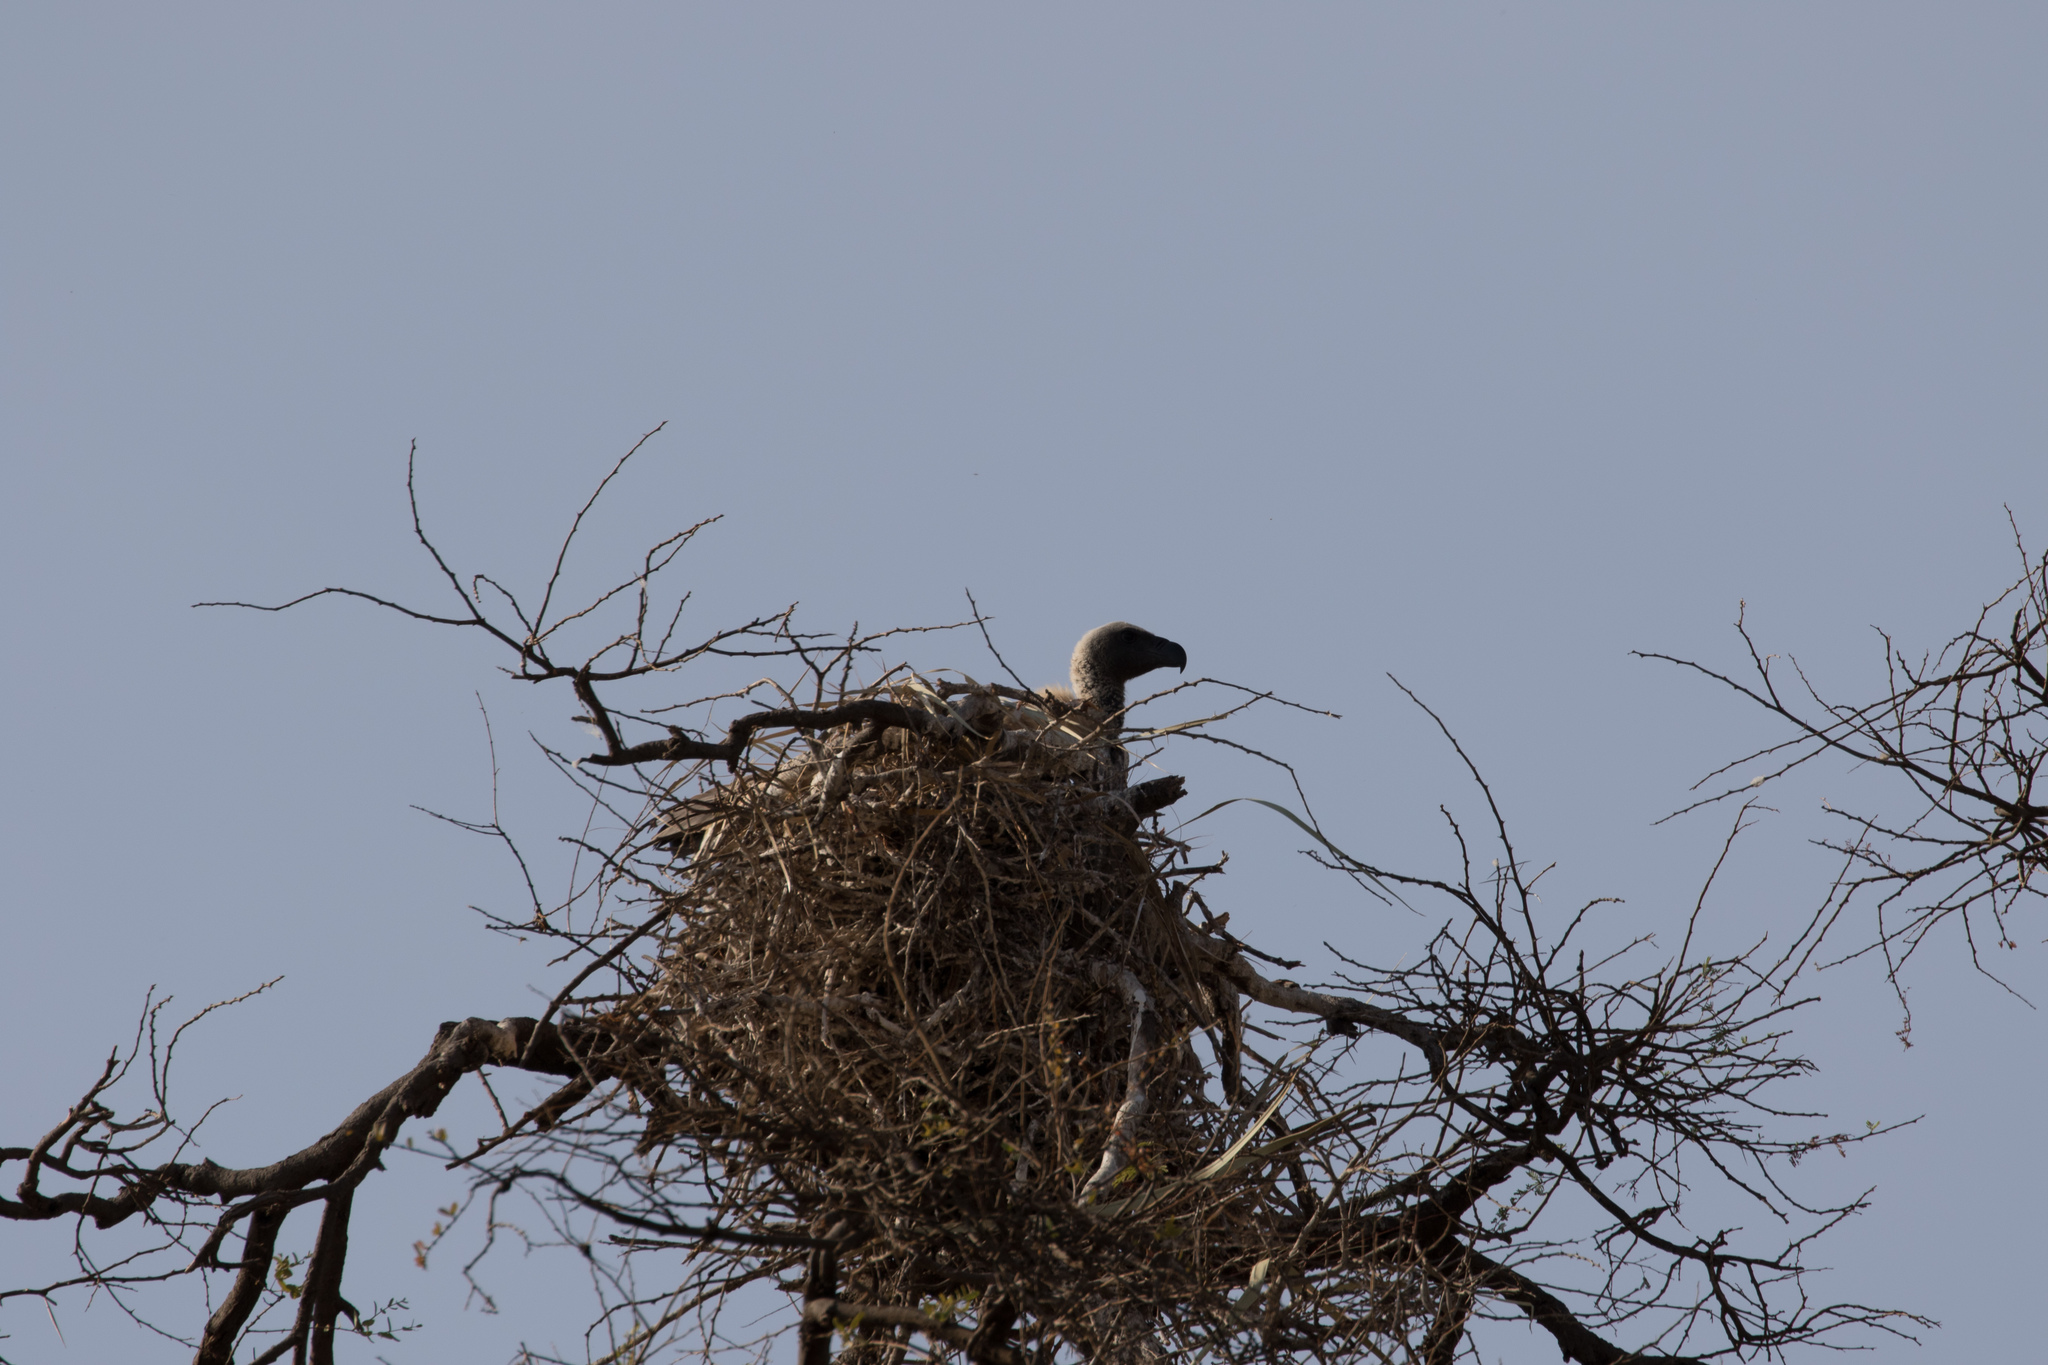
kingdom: Animalia
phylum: Chordata
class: Aves
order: Accipitriformes
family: Accipitridae
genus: Gyps
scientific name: Gyps africanus
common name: White-backed vulture
